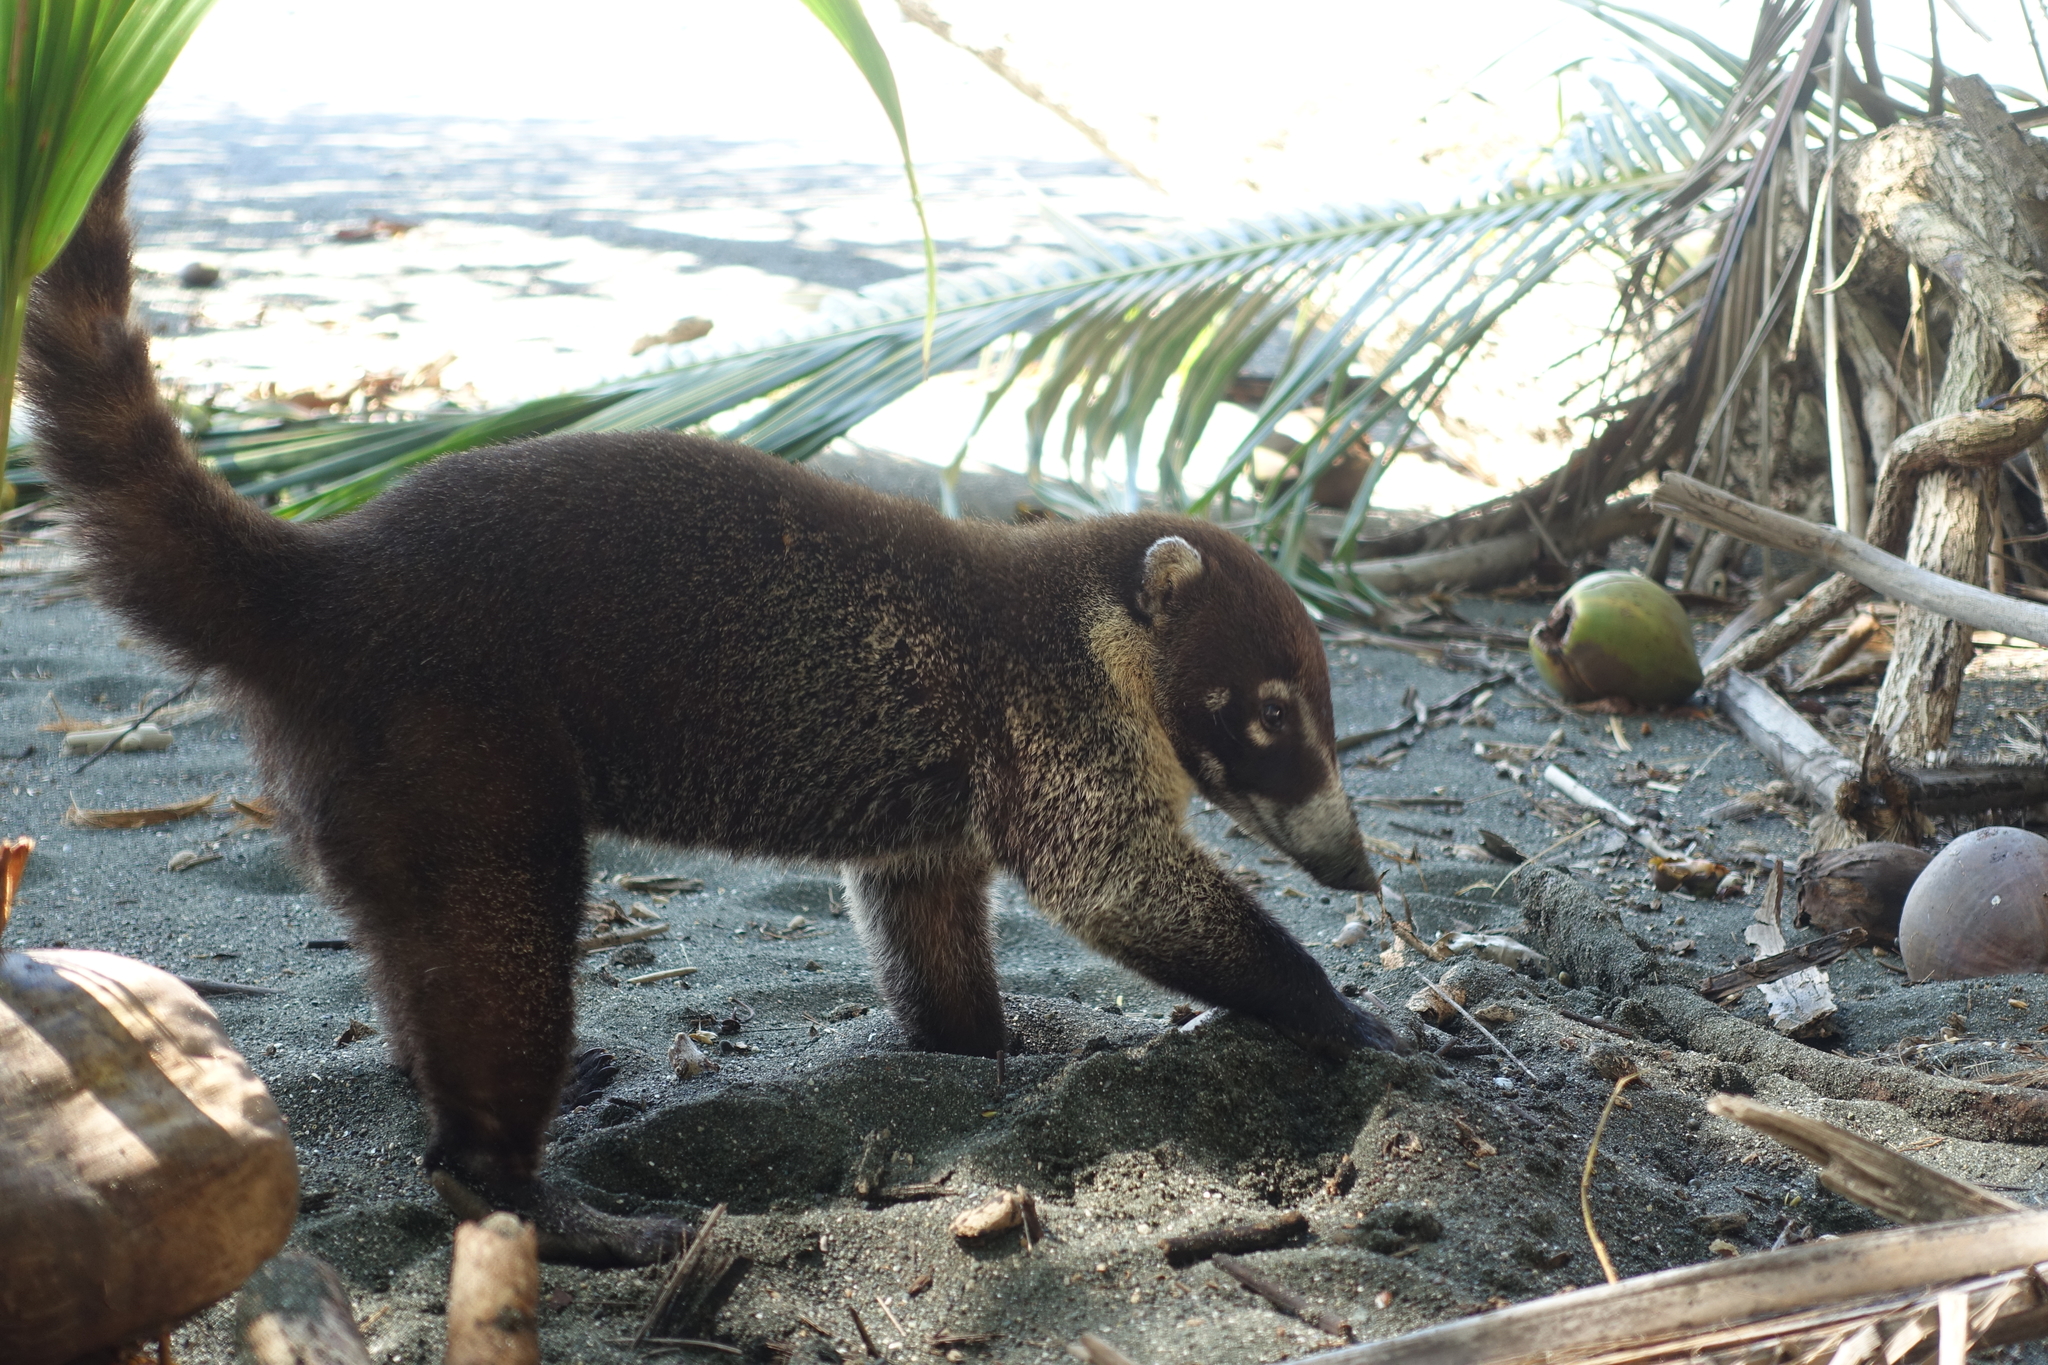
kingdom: Animalia
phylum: Chordata
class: Mammalia
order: Carnivora
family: Procyonidae
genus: Nasua
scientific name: Nasua narica
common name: White-nosed coati
